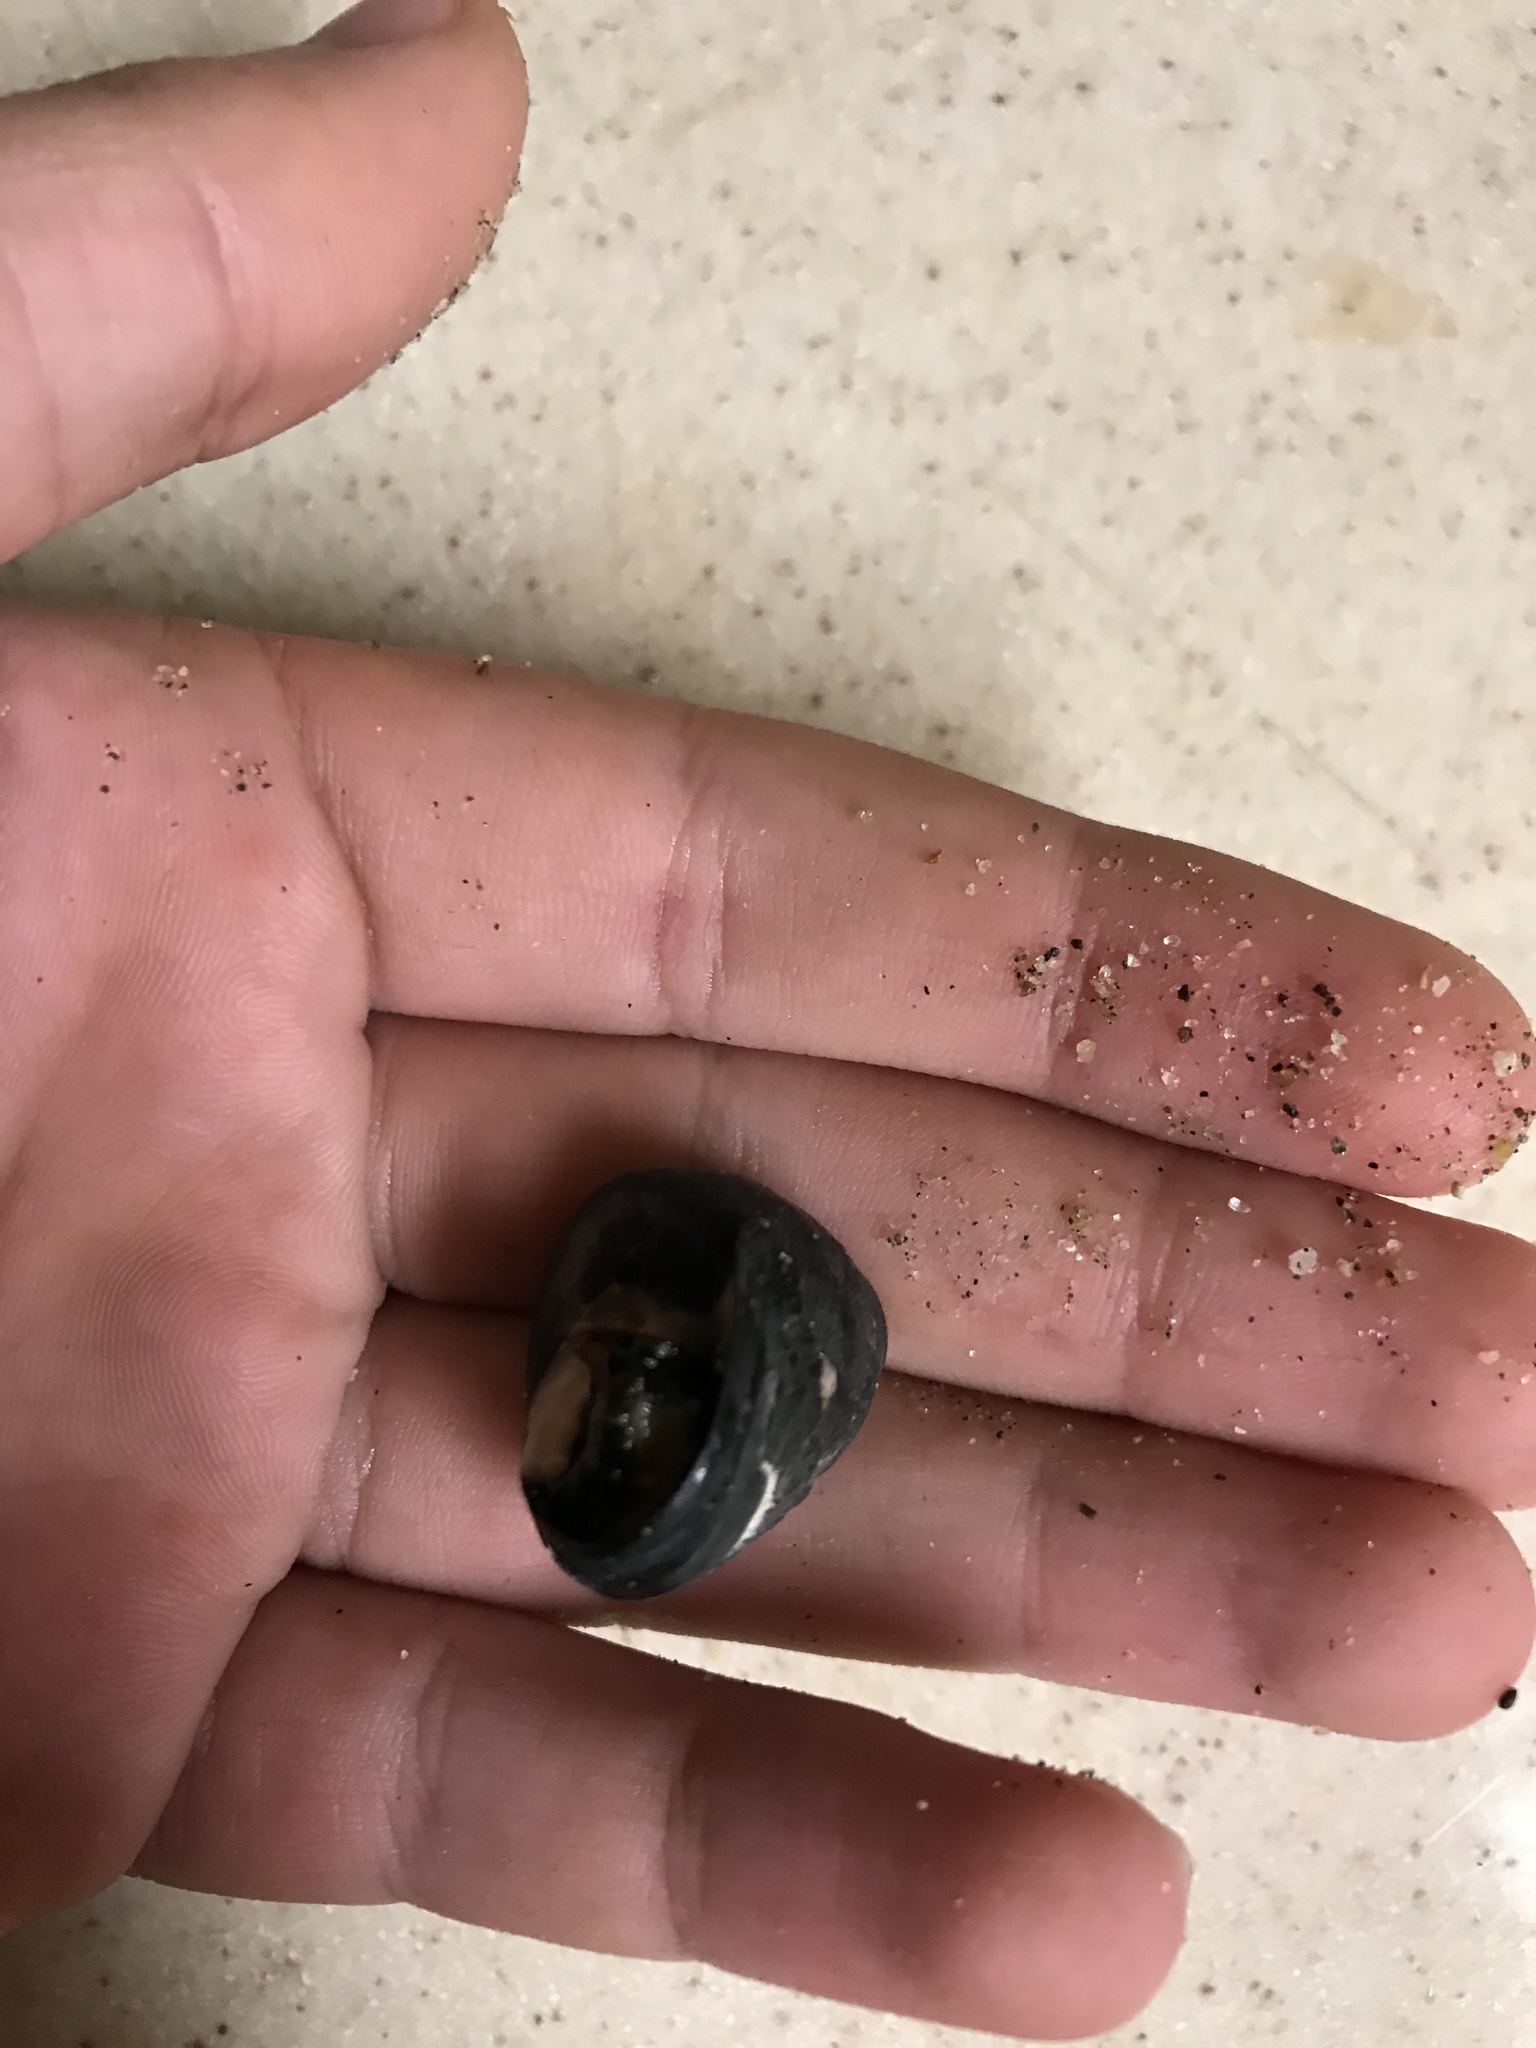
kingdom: Animalia
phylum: Mollusca
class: Gastropoda
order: Trochida
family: Tegulidae
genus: Tegula
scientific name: Tegula funebralis
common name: Black tegula
